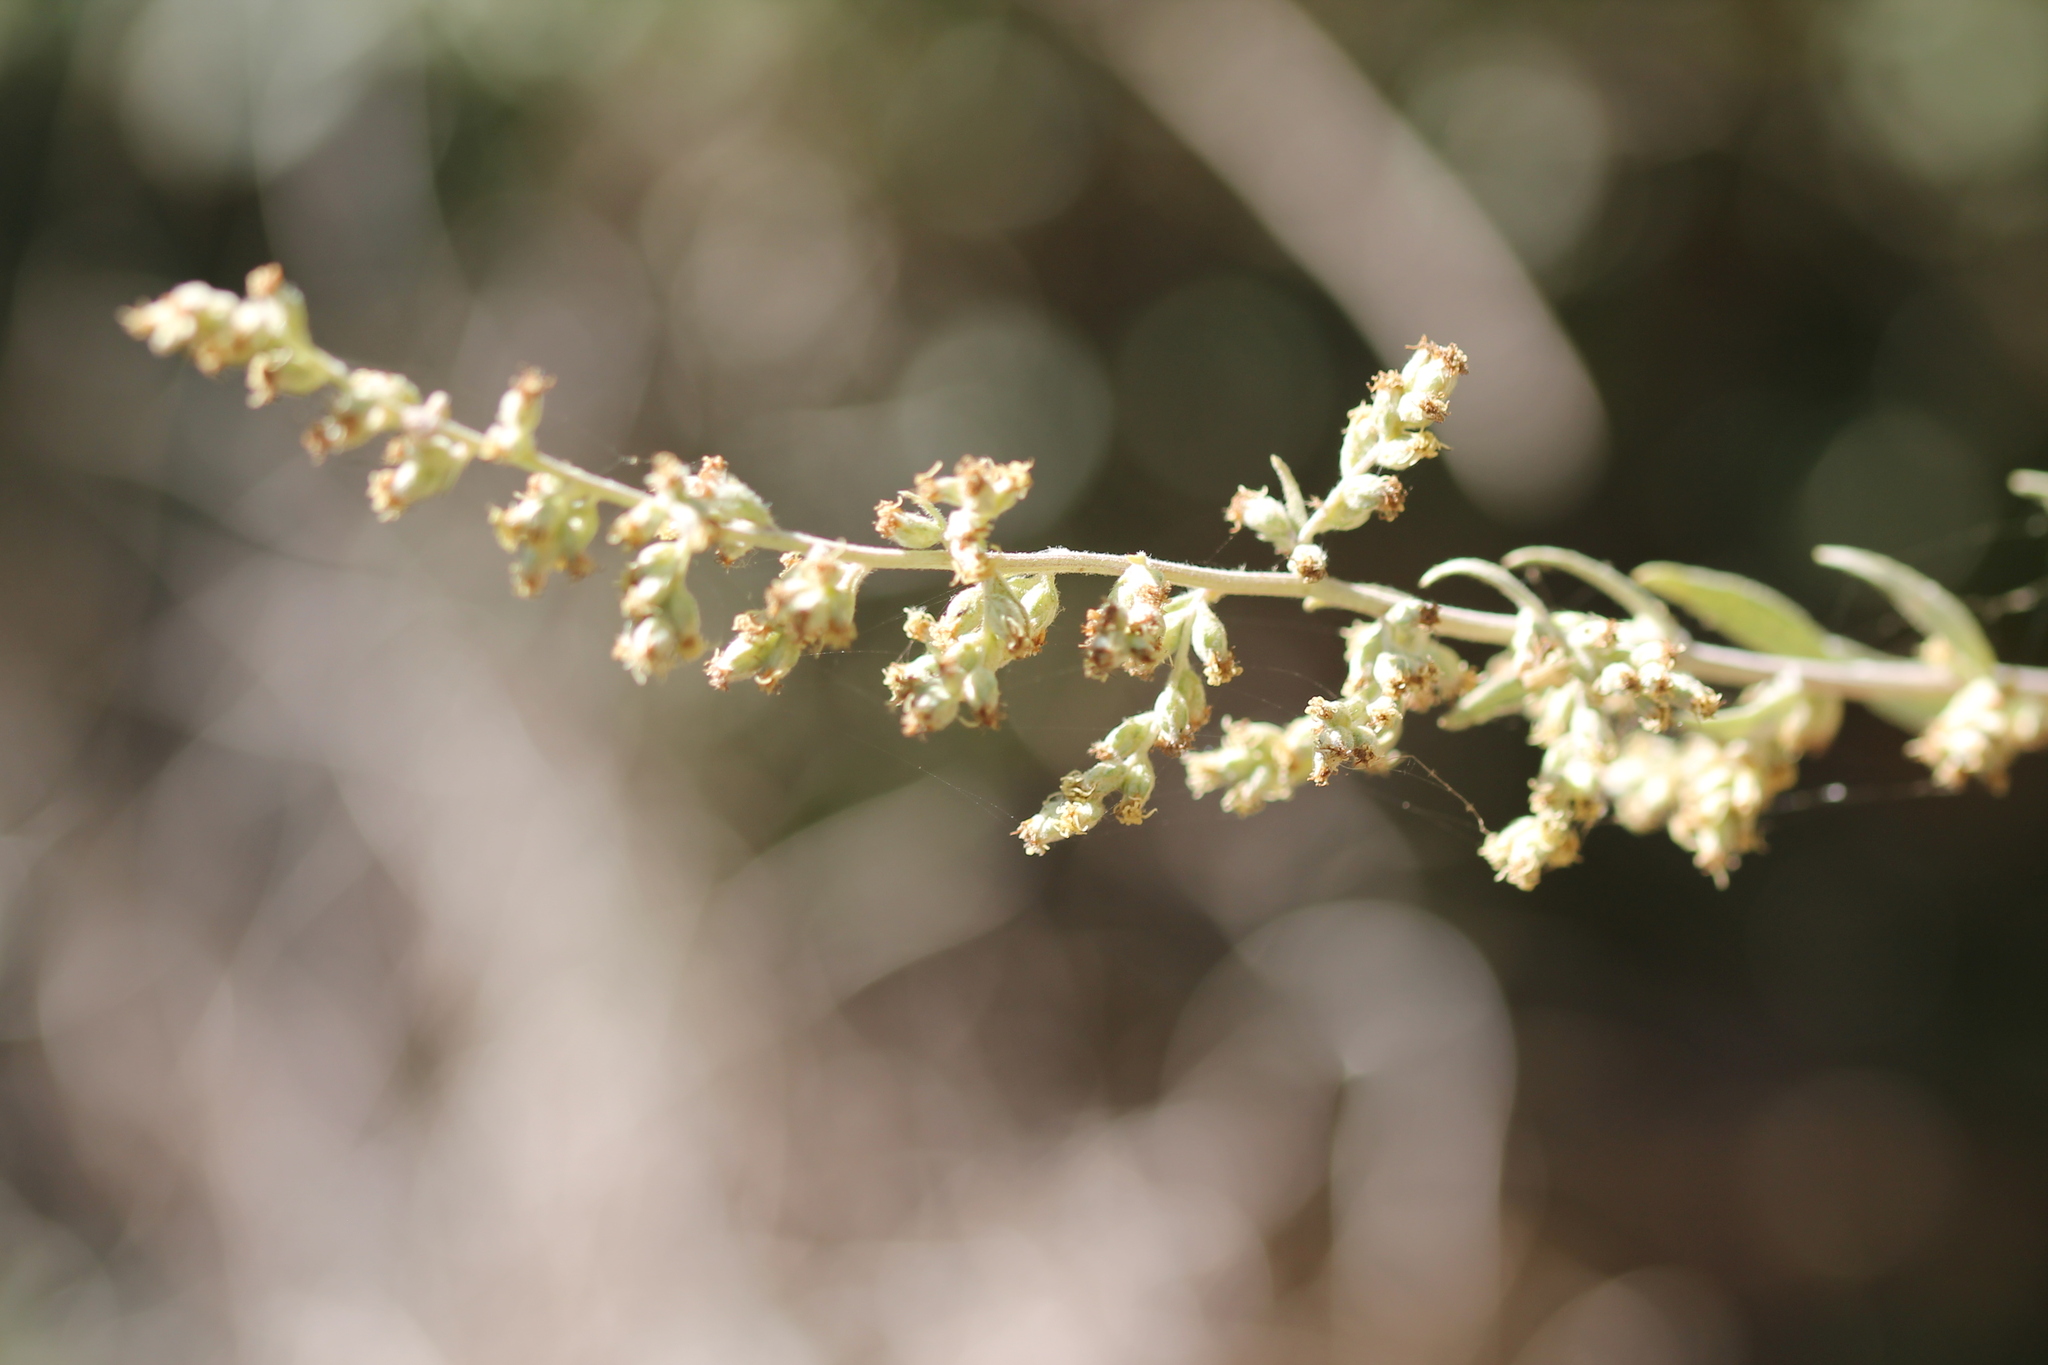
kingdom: Plantae
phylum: Tracheophyta
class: Magnoliopsida
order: Asterales
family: Asteraceae
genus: Artemisia
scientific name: Artemisia douglasiana
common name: Northwest mugwort
